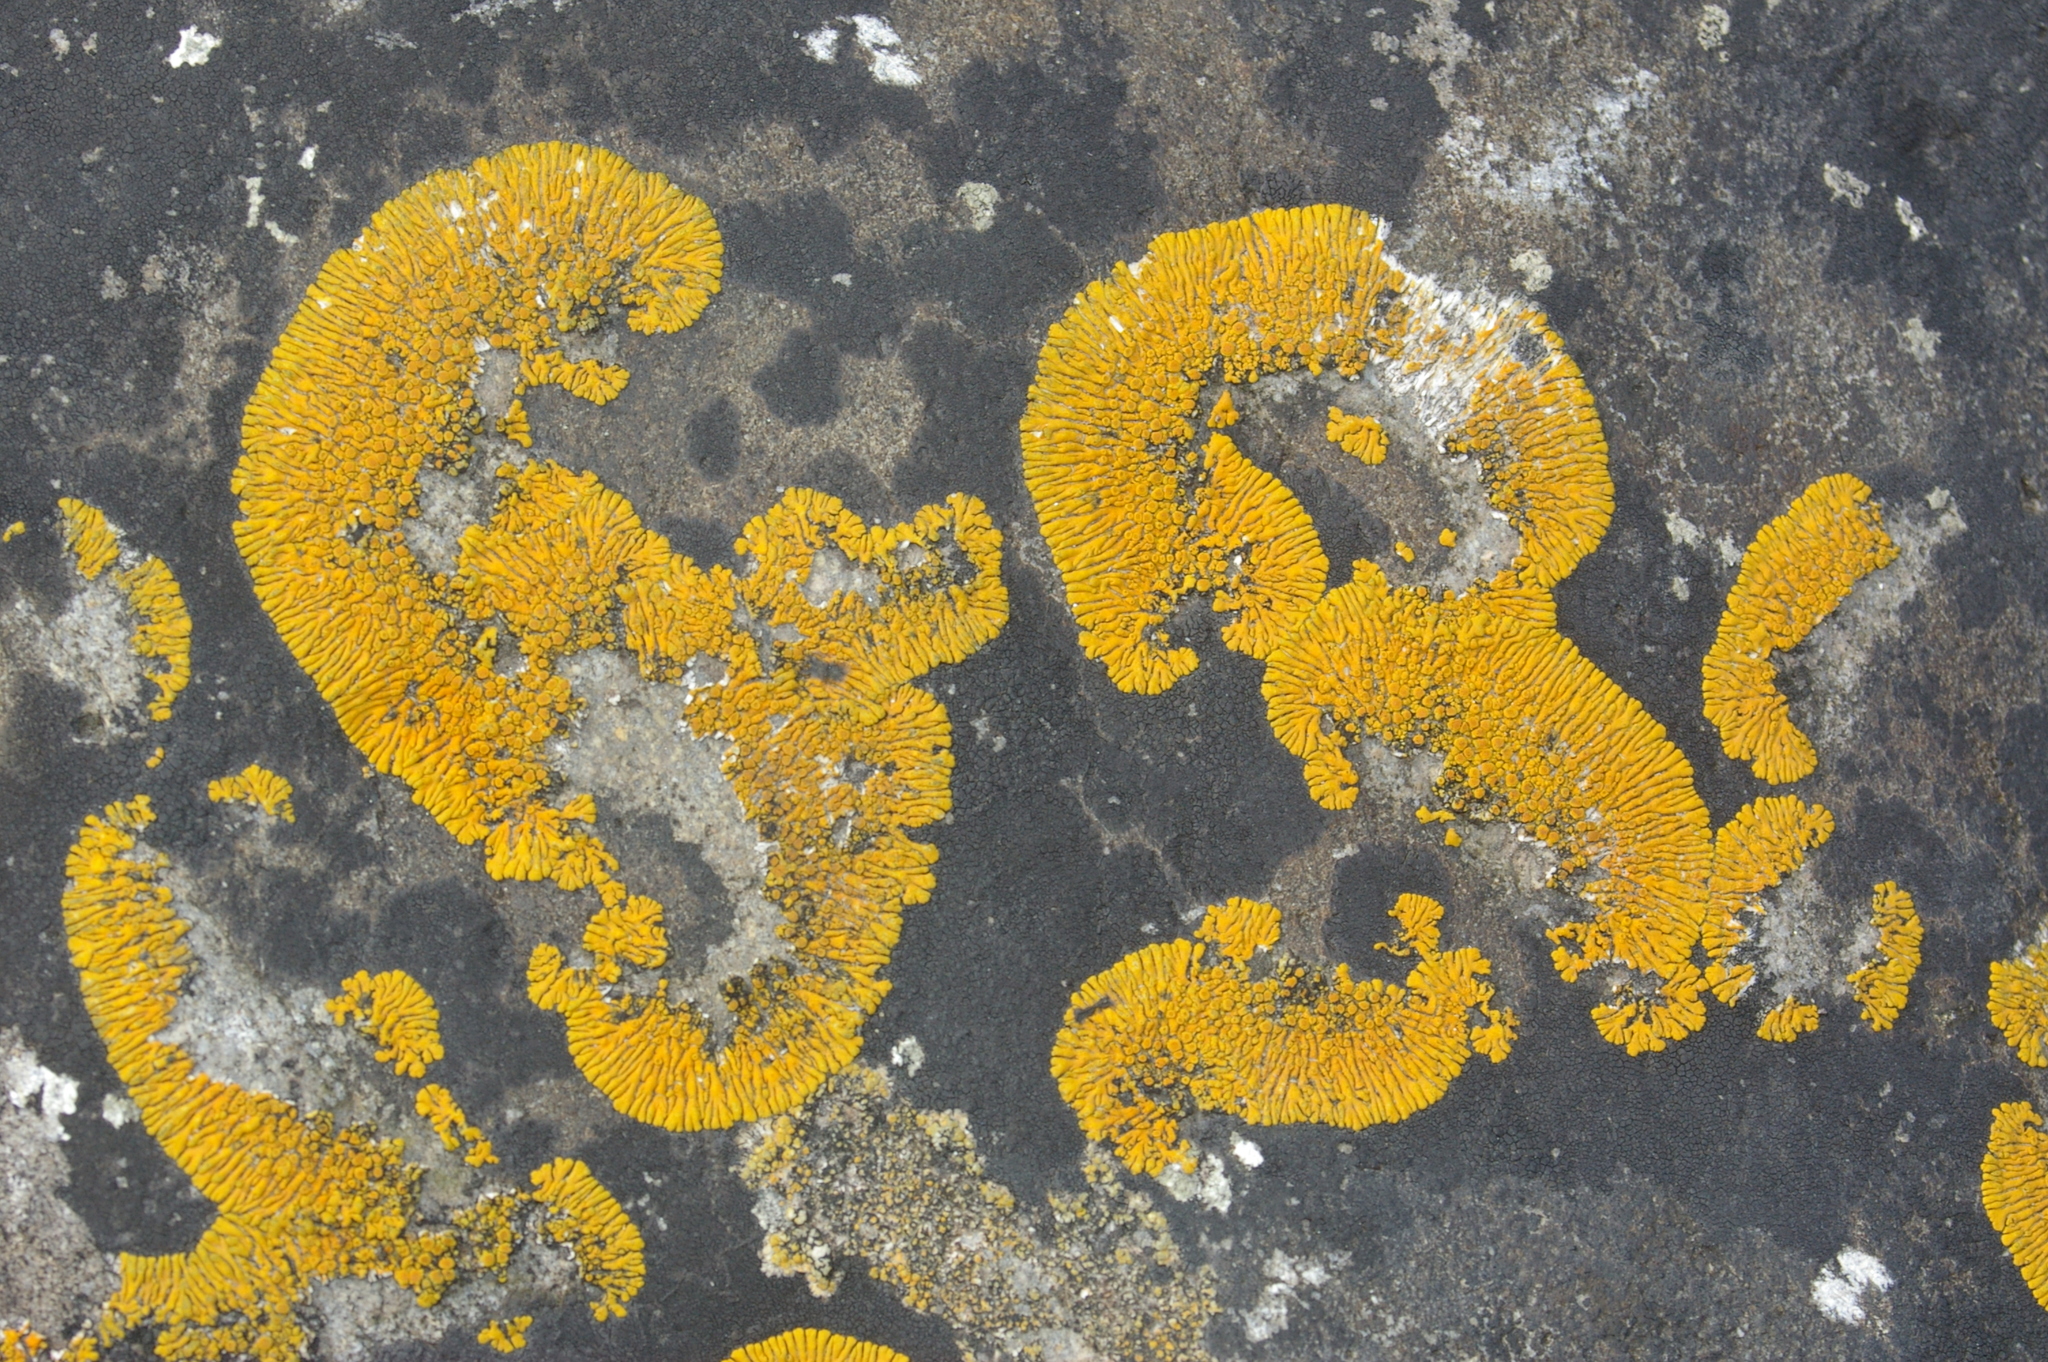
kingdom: Fungi
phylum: Ascomycota
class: Lecanoromycetes
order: Teloschistales
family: Teloschistaceae
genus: Variospora
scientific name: Variospora thallincola
